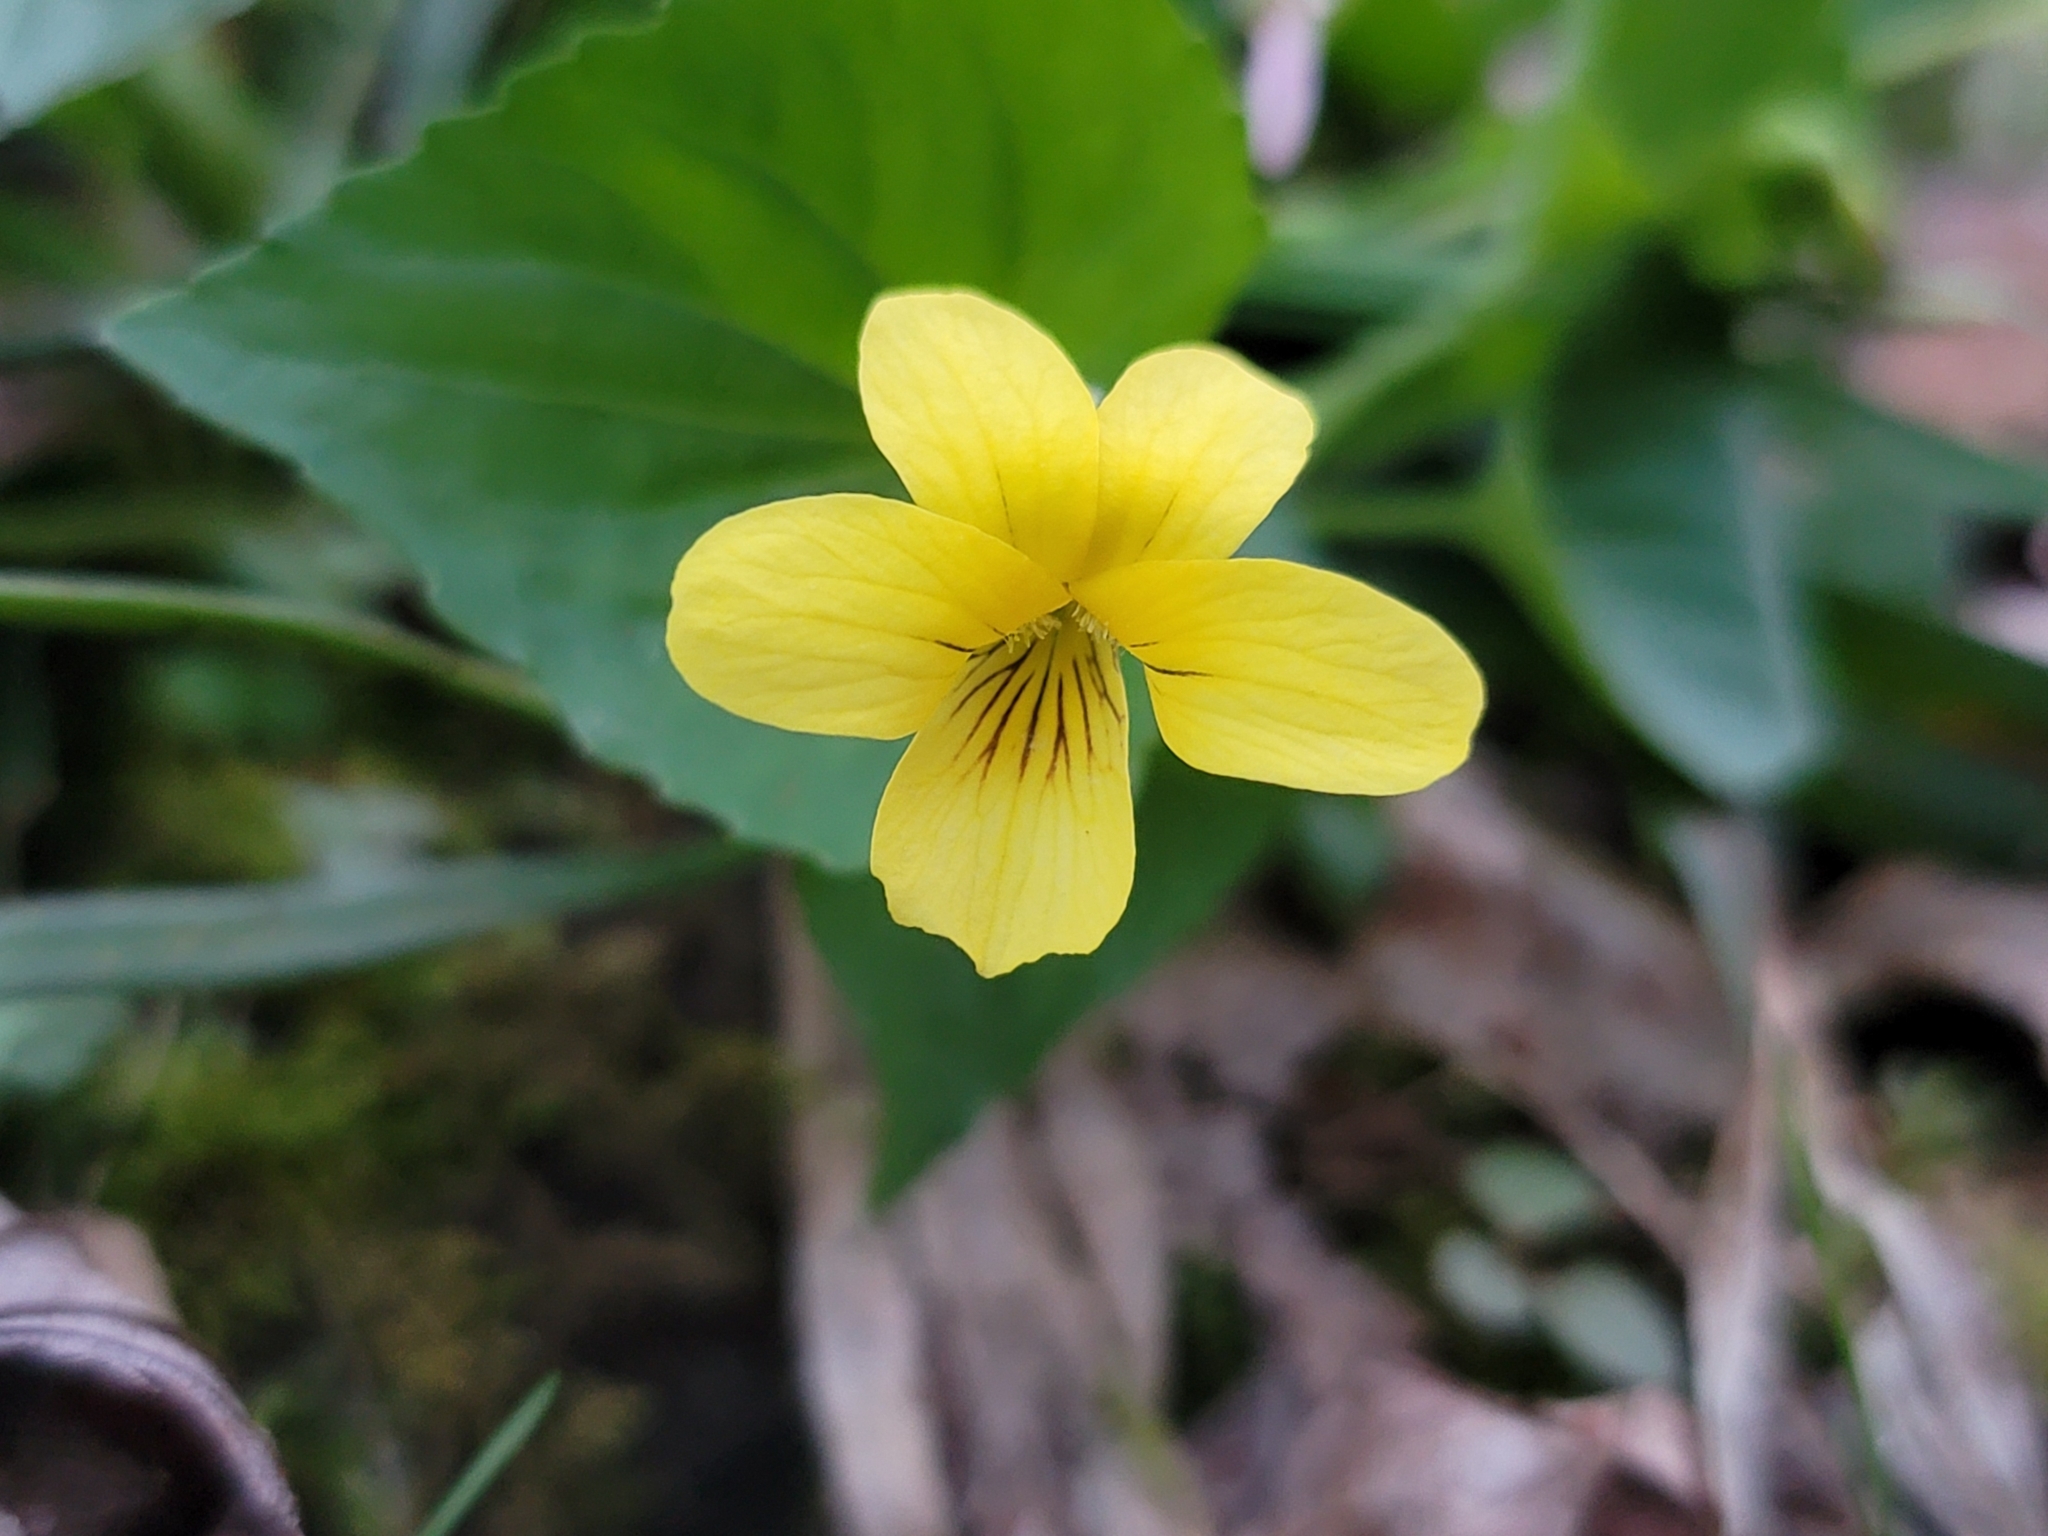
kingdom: Plantae
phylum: Tracheophyta
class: Magnoliopsida
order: Malpighiales
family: Violaceae
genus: Viola
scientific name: Viola eriocarpa
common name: Smooth yellow violet
